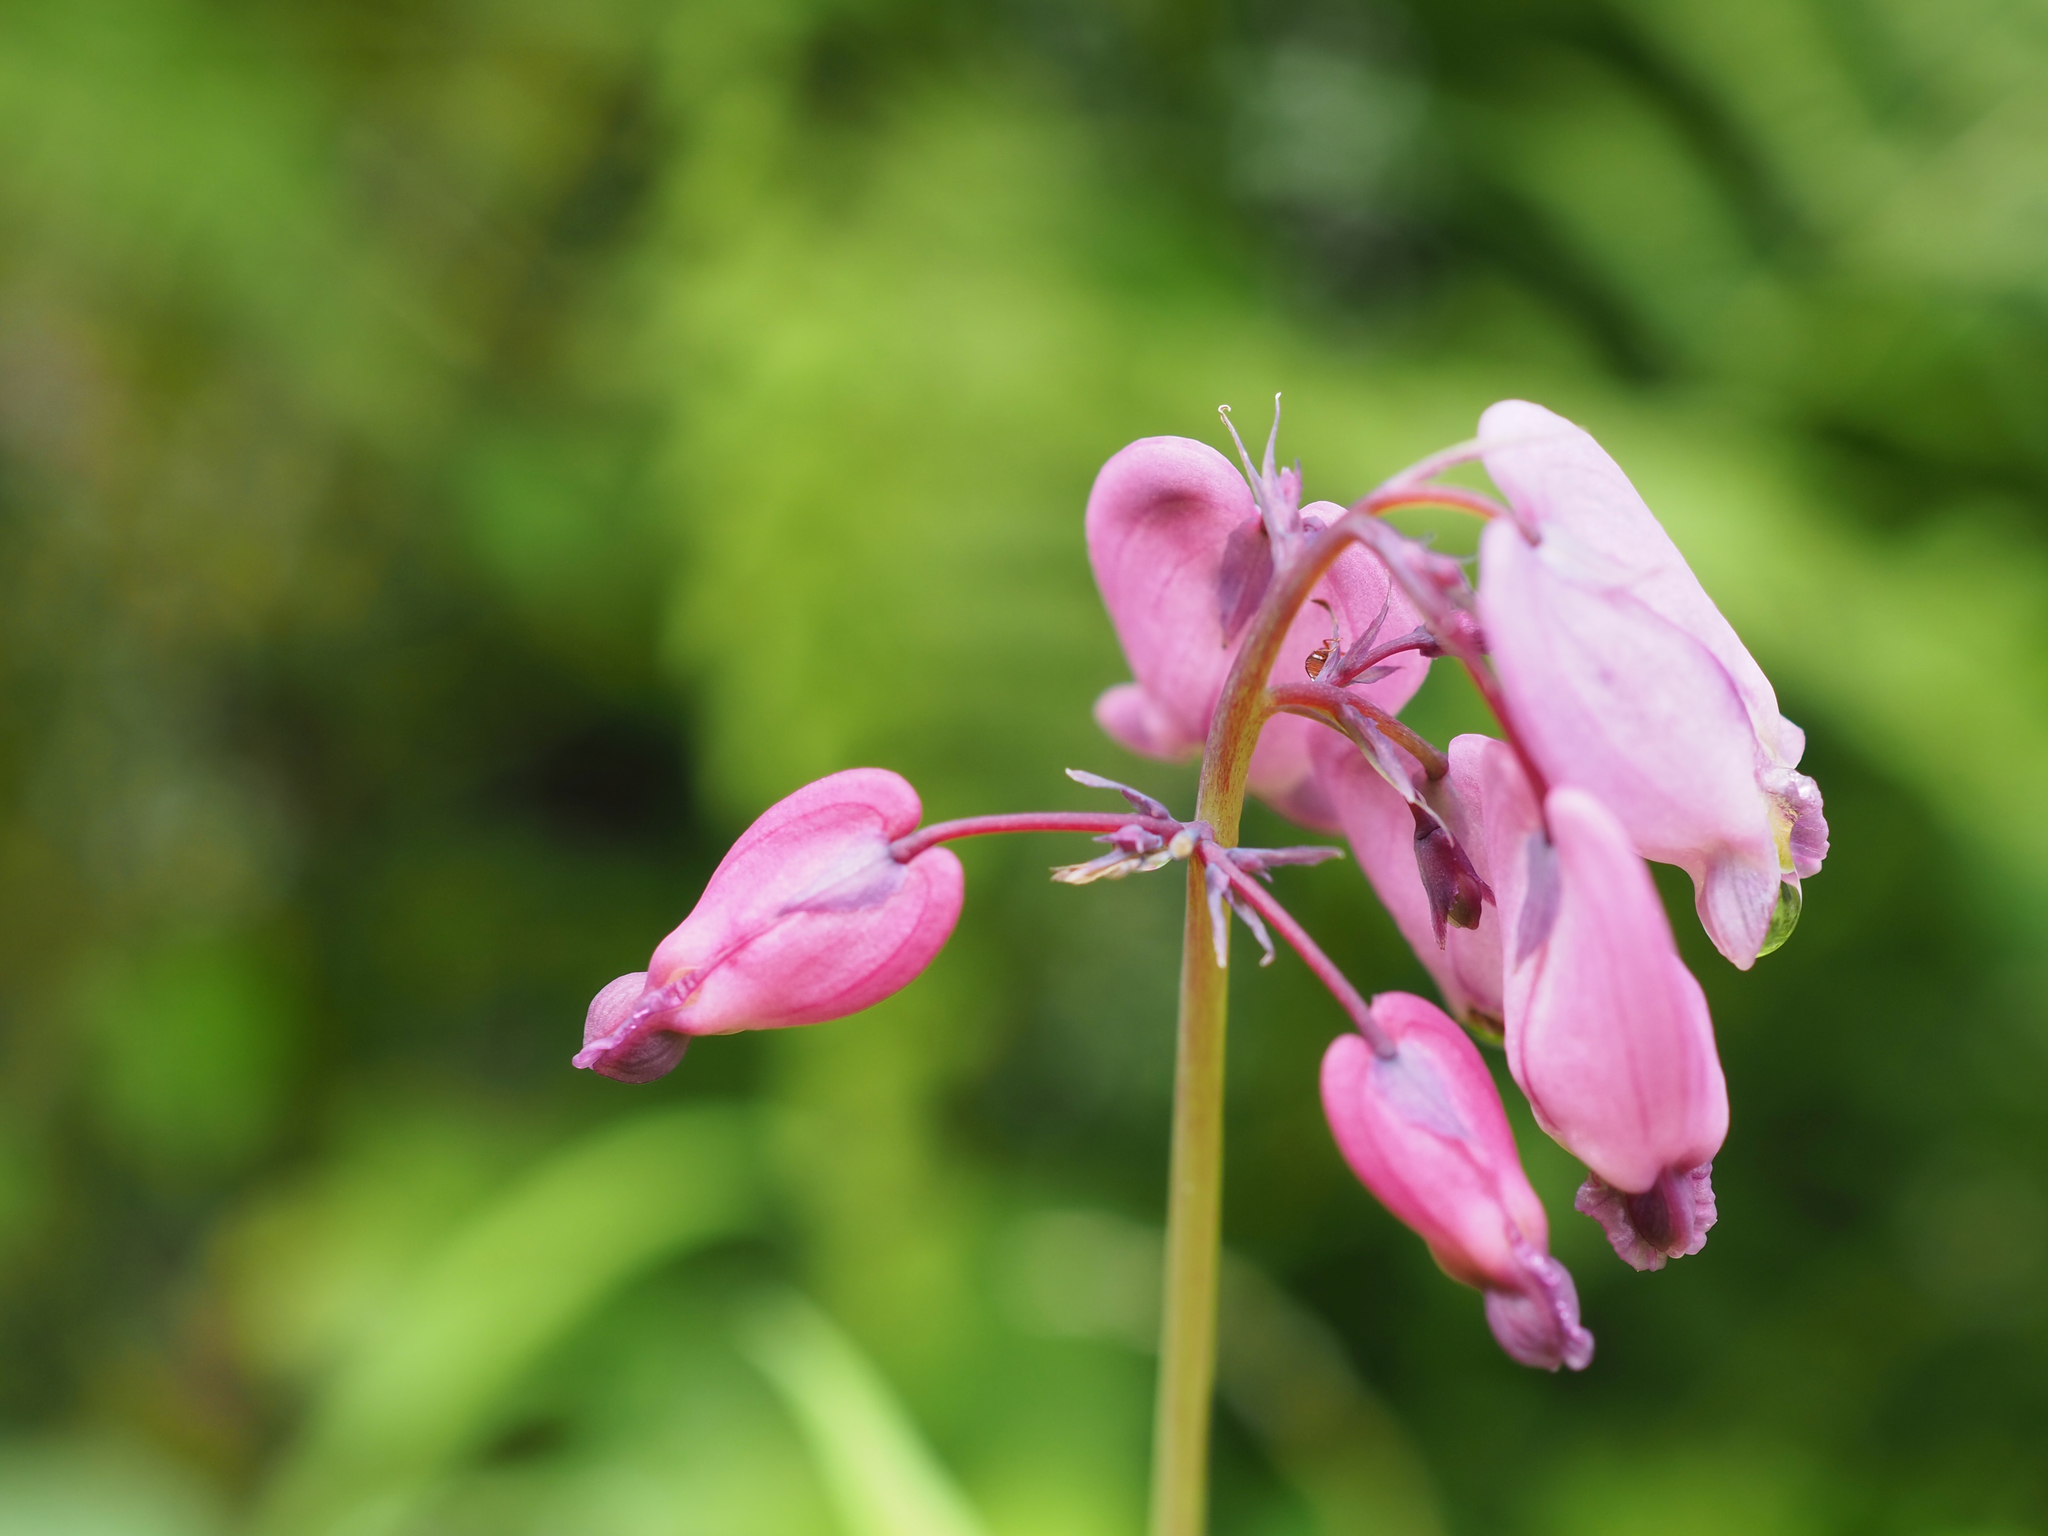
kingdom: Plantae
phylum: Tracheophyta
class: Magnoliopsida
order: Ranunculales
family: Papaveraceae
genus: Dicentra
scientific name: Dicentra formosa
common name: Bleeding-heart
